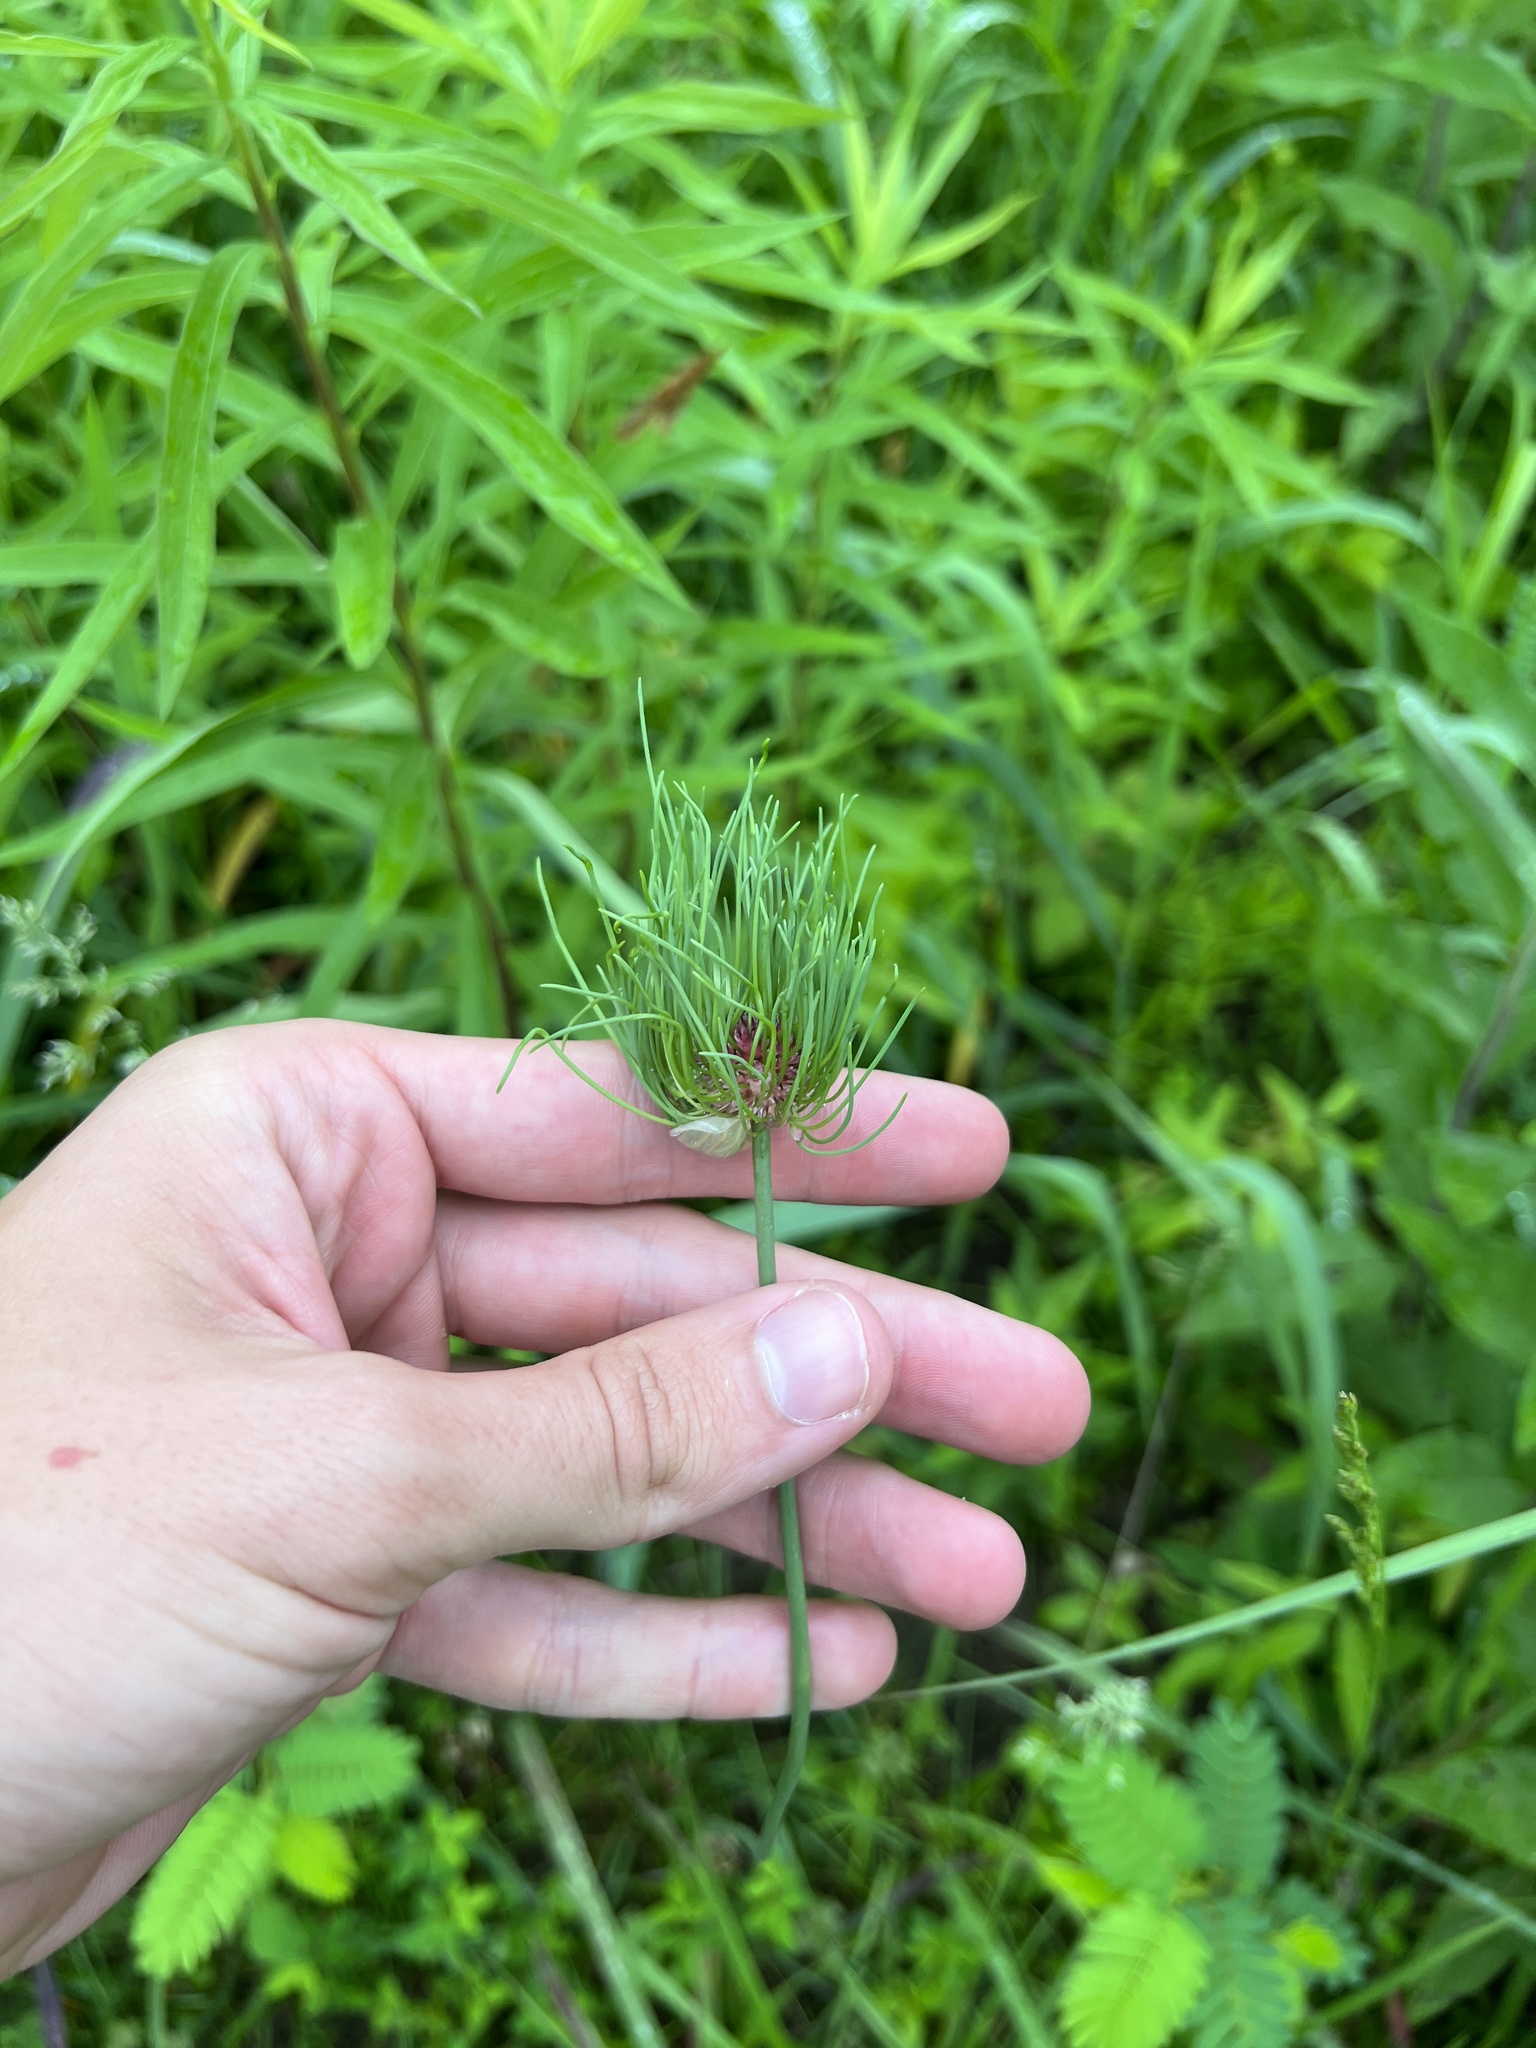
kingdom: Plantae
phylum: Tracheophyta
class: Liliopsida
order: Asparagales
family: Amaryllidaceae
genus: Allium
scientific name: Allium vineale
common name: Crow garlic
